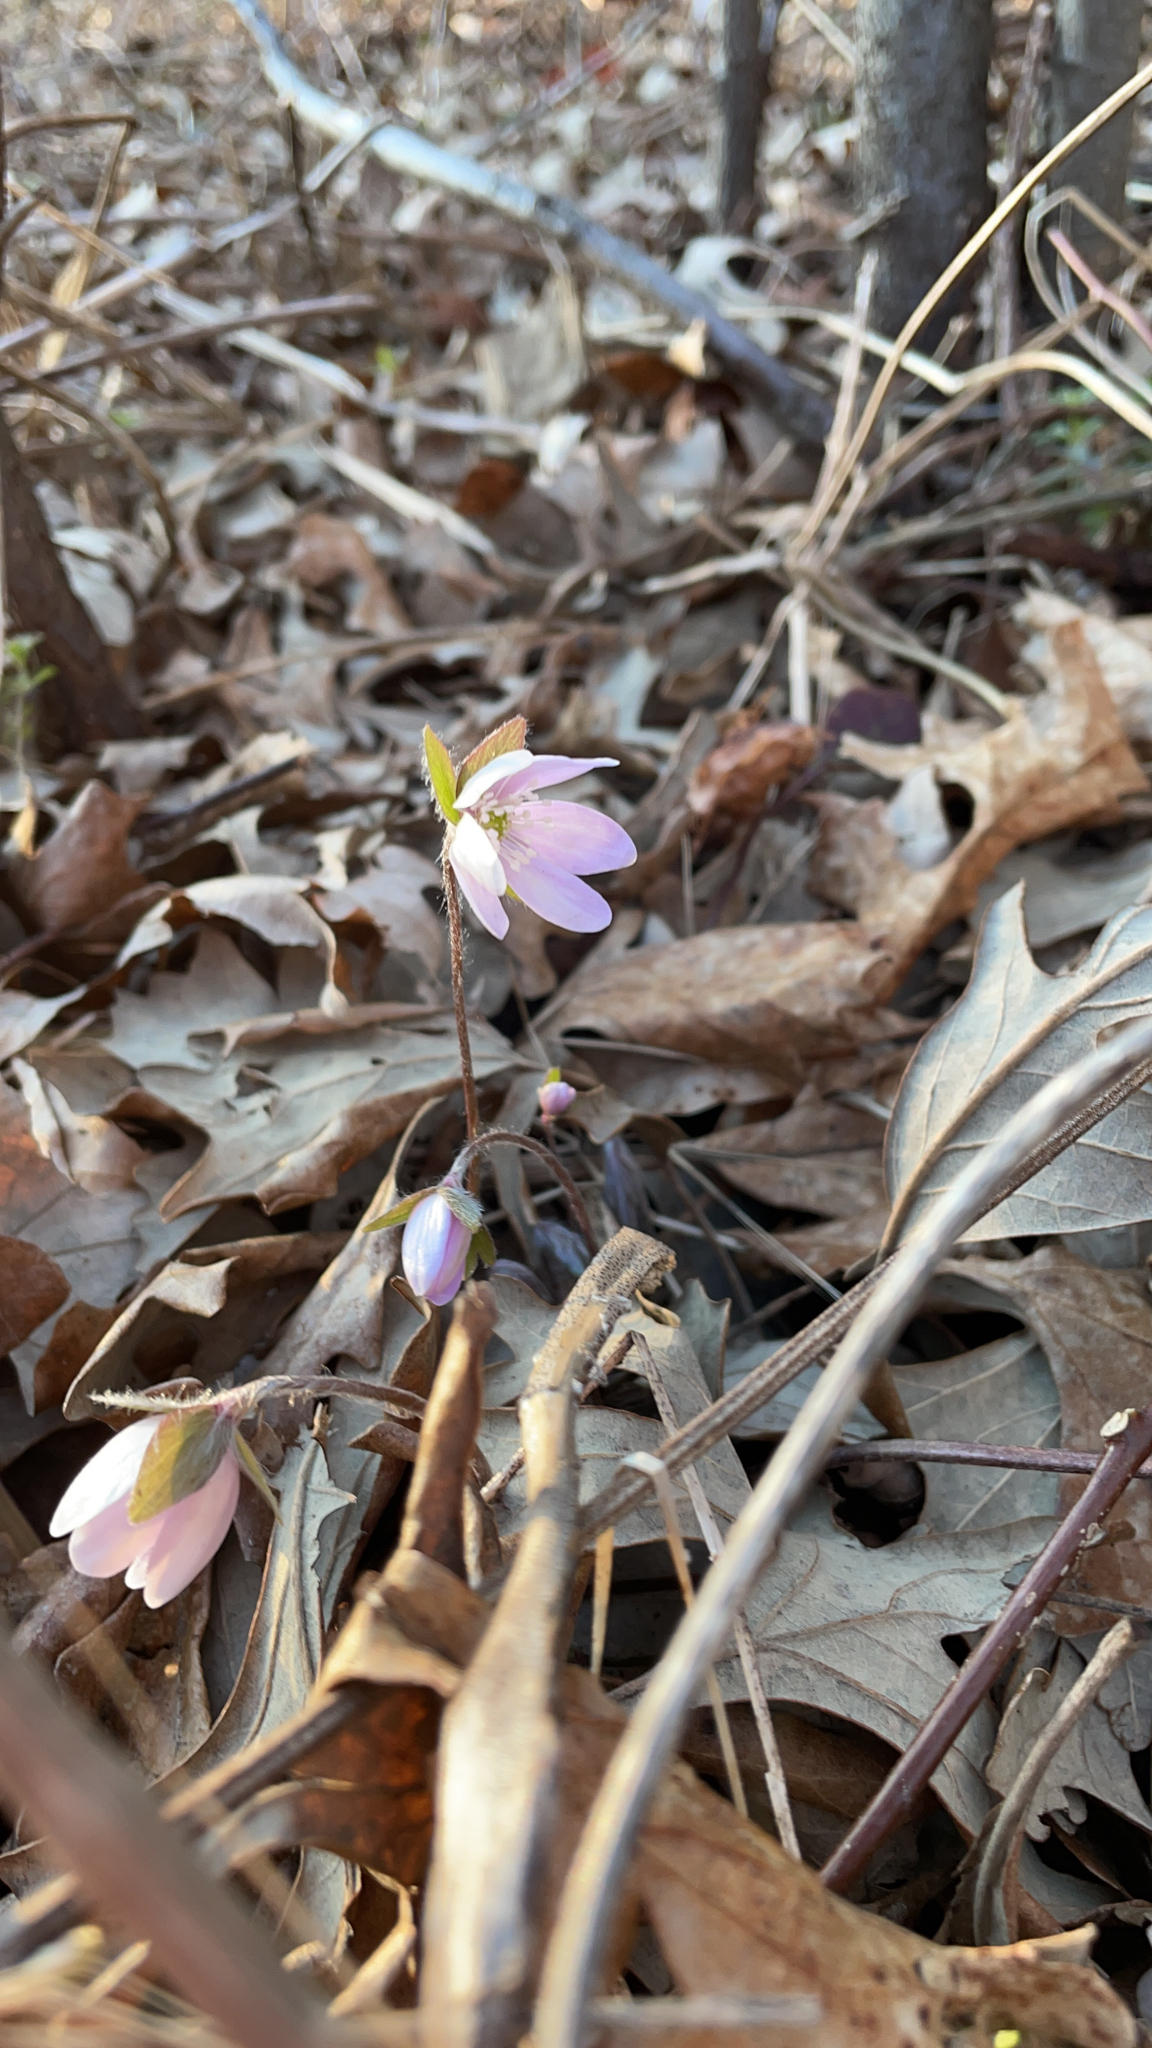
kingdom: Plantae
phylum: Tracheophyta
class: Magnoliopsida
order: Ranunculales
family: Ranunculaceae
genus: Hepatica
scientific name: Hepatica acutiloba
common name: Sharp-lobed hepatica
